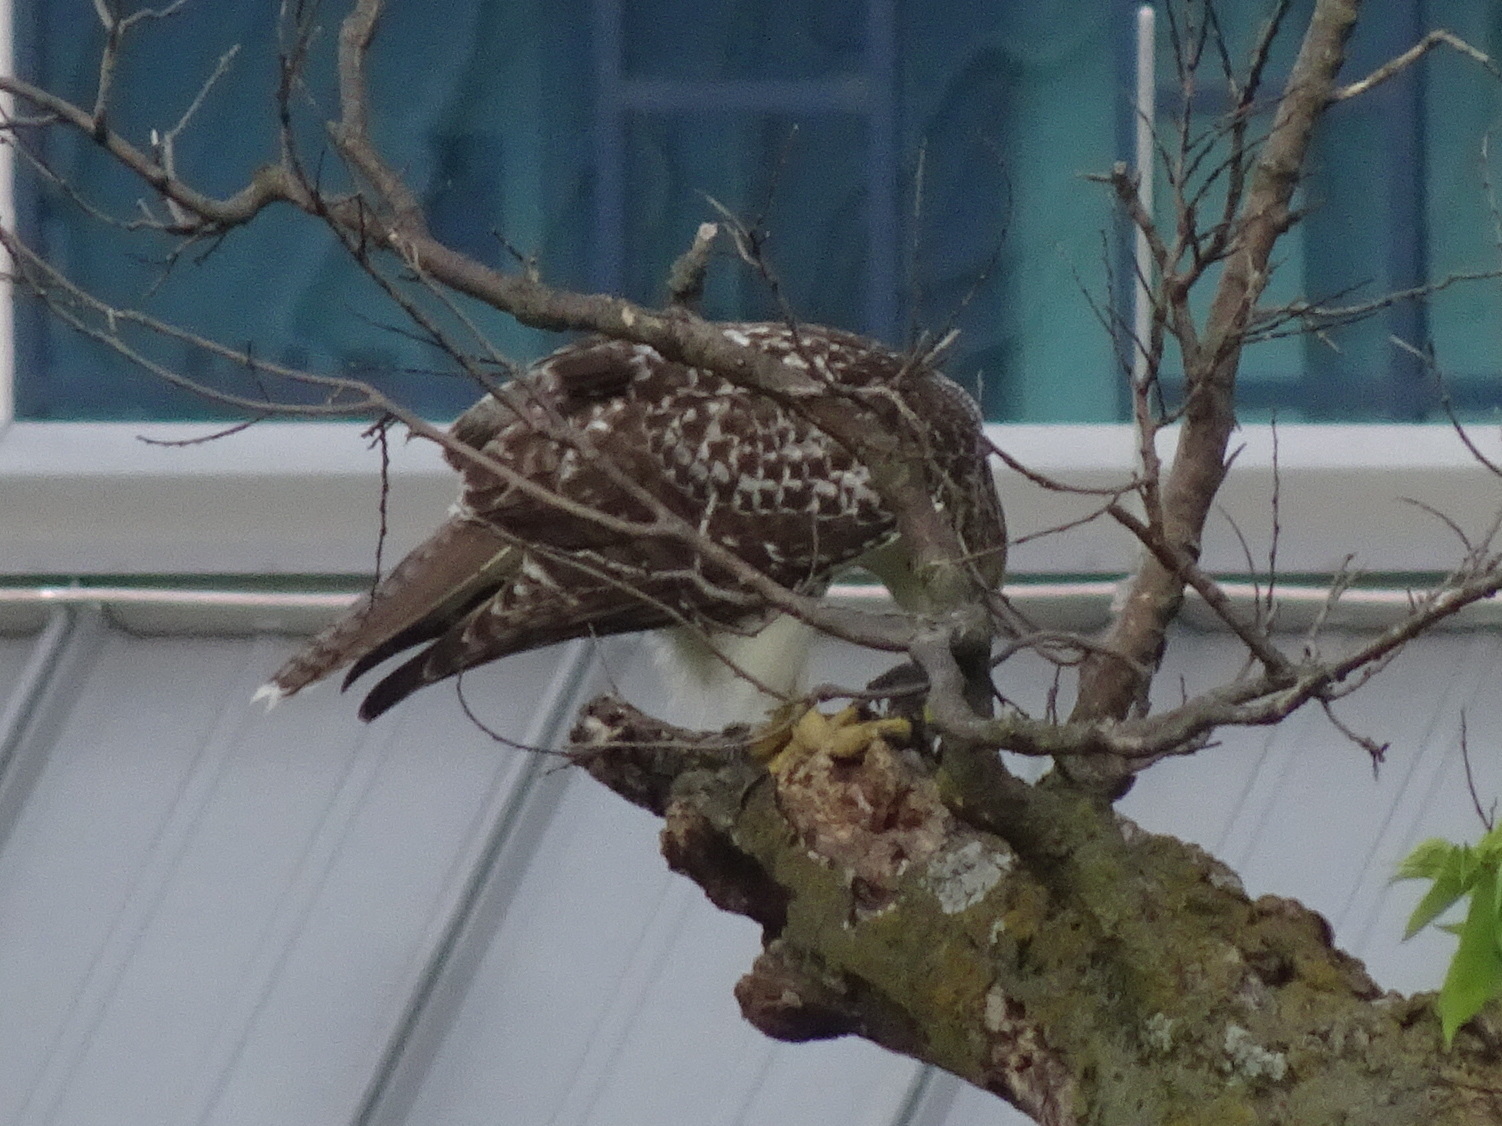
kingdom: Animalia
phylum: Chordata
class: Aves
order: Accipitriformes
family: Accipitridae
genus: Buteo
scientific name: Buteo jamaicensis
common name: Red-tailed hawk
